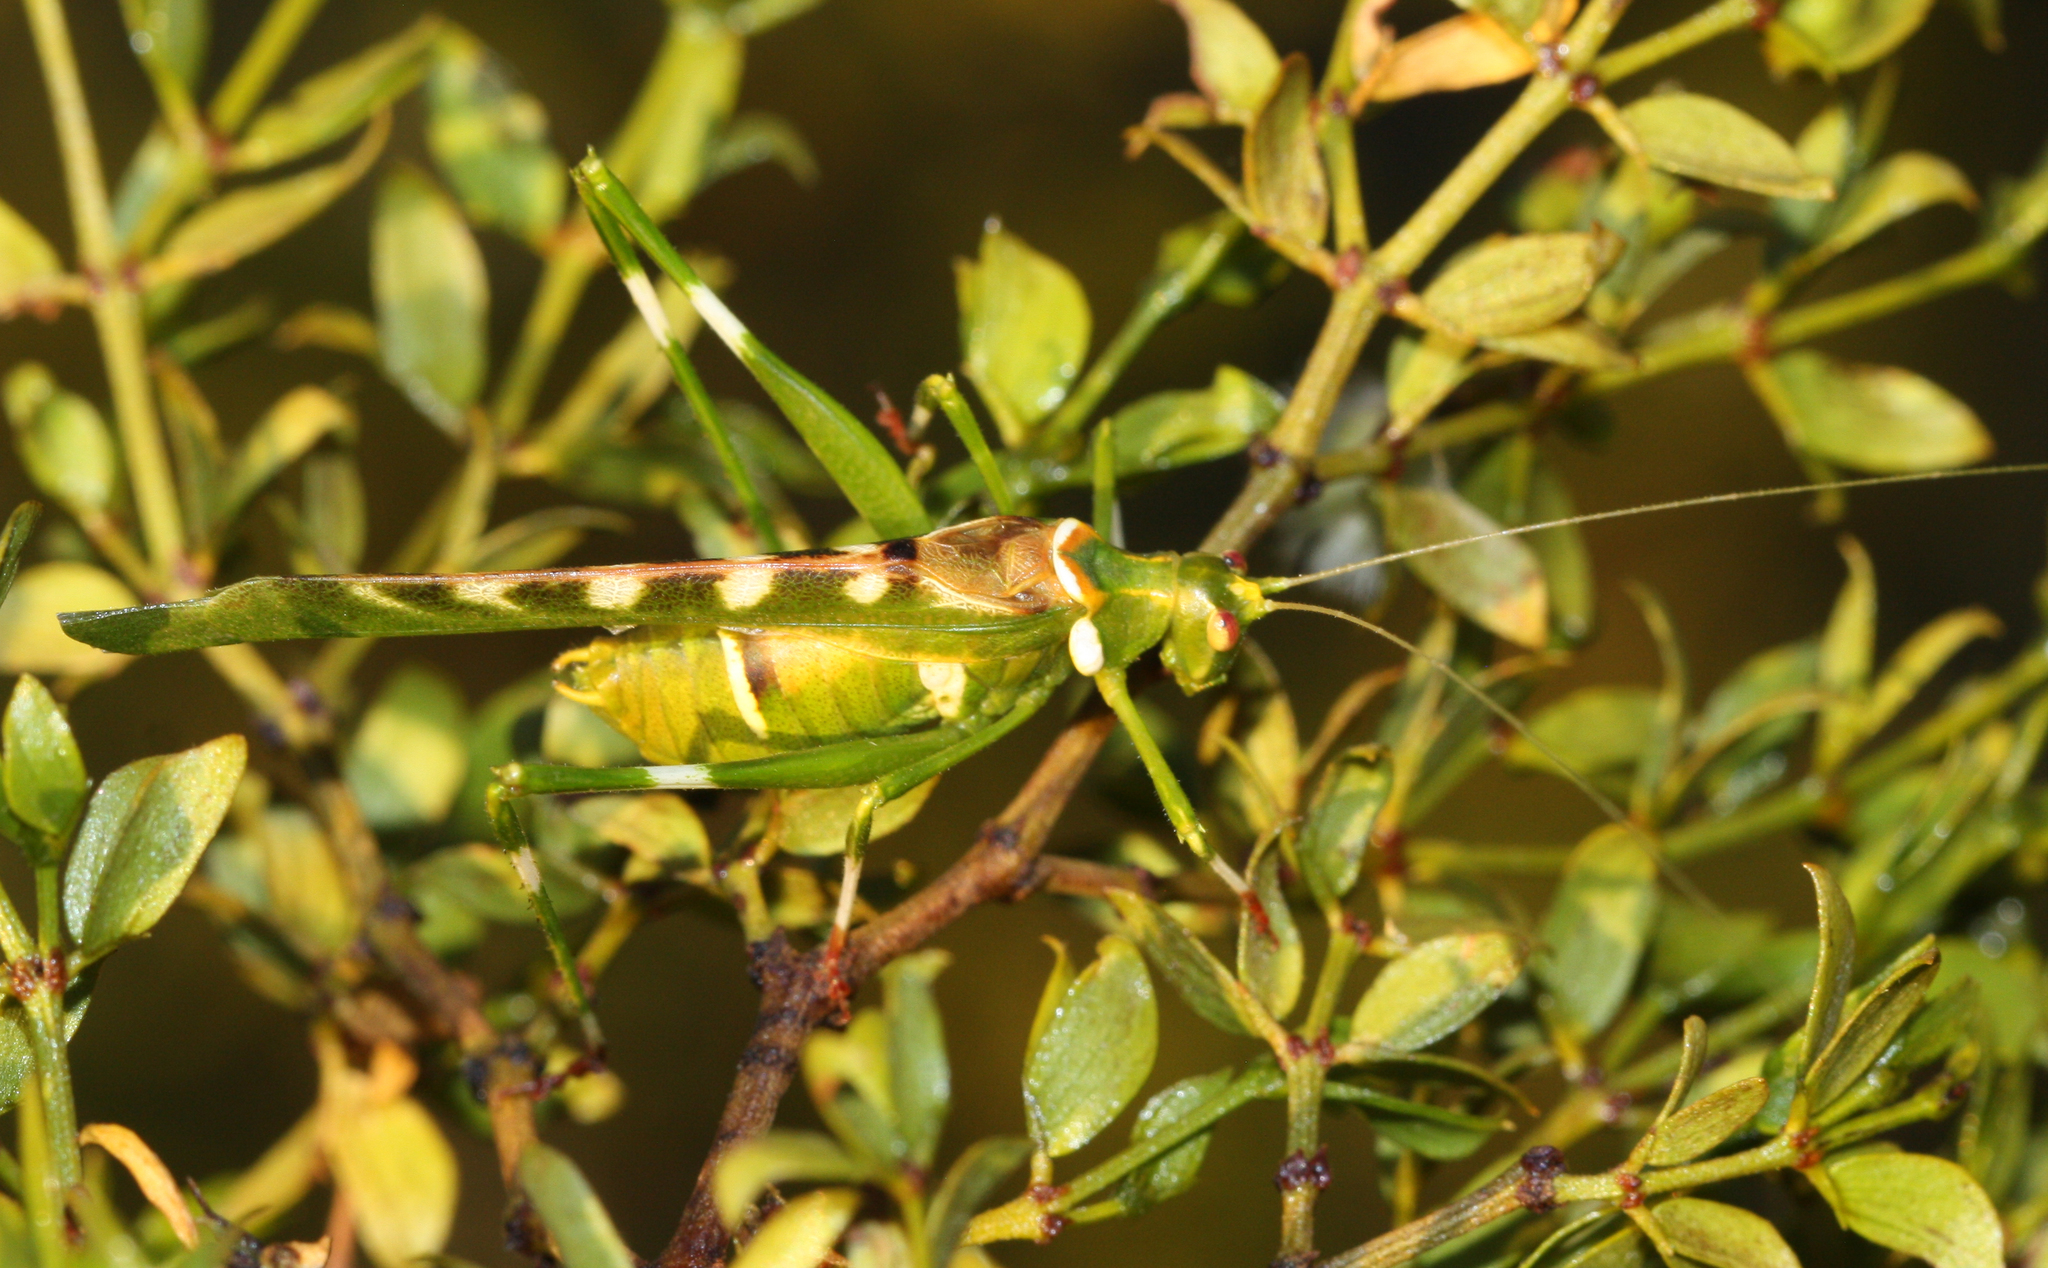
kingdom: Animalia
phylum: Arthropoda
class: Insecta
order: Orthoptera
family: Tettigoniidae
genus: Insara
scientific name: Insara covilleae
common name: Creosote bush katydid
